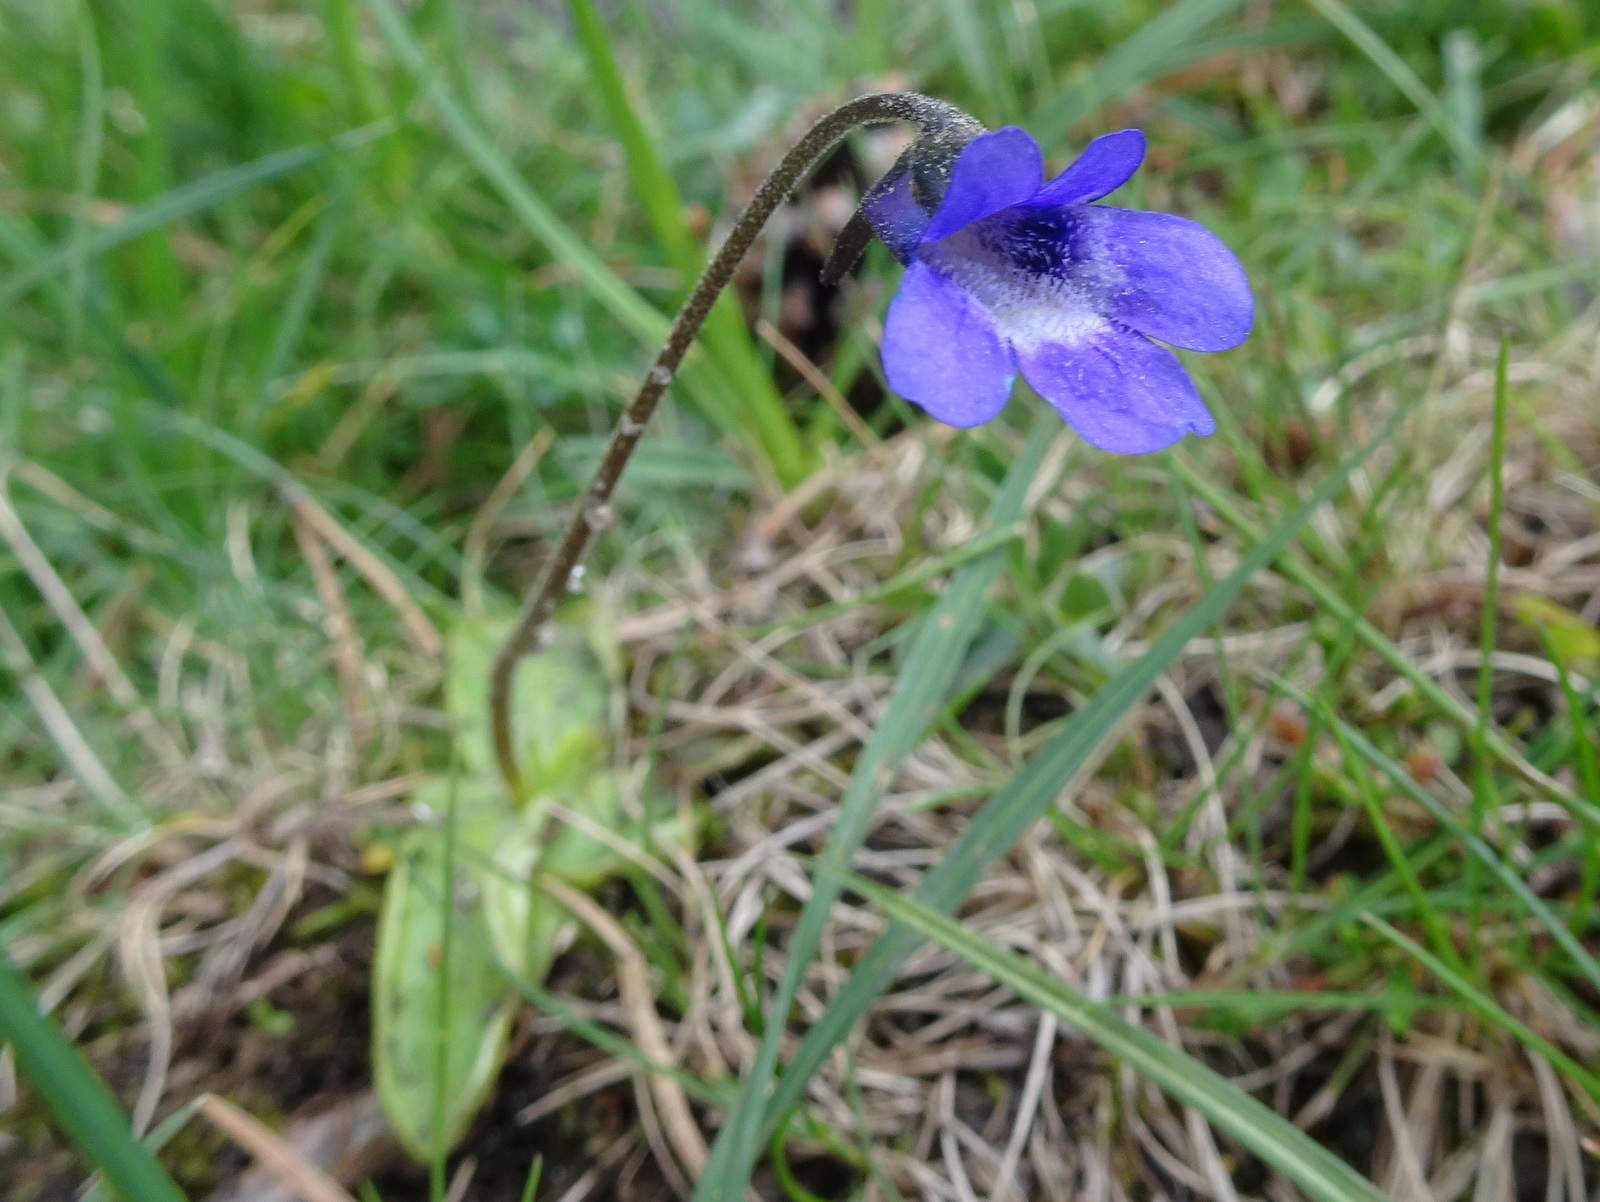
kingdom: Plantae
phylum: Tracheophyta
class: Magnoliopsida
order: Lamiales
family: Lentibulariaceae
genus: Pinguicula
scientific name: Pinguicula vulgaris
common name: Common butterwort
